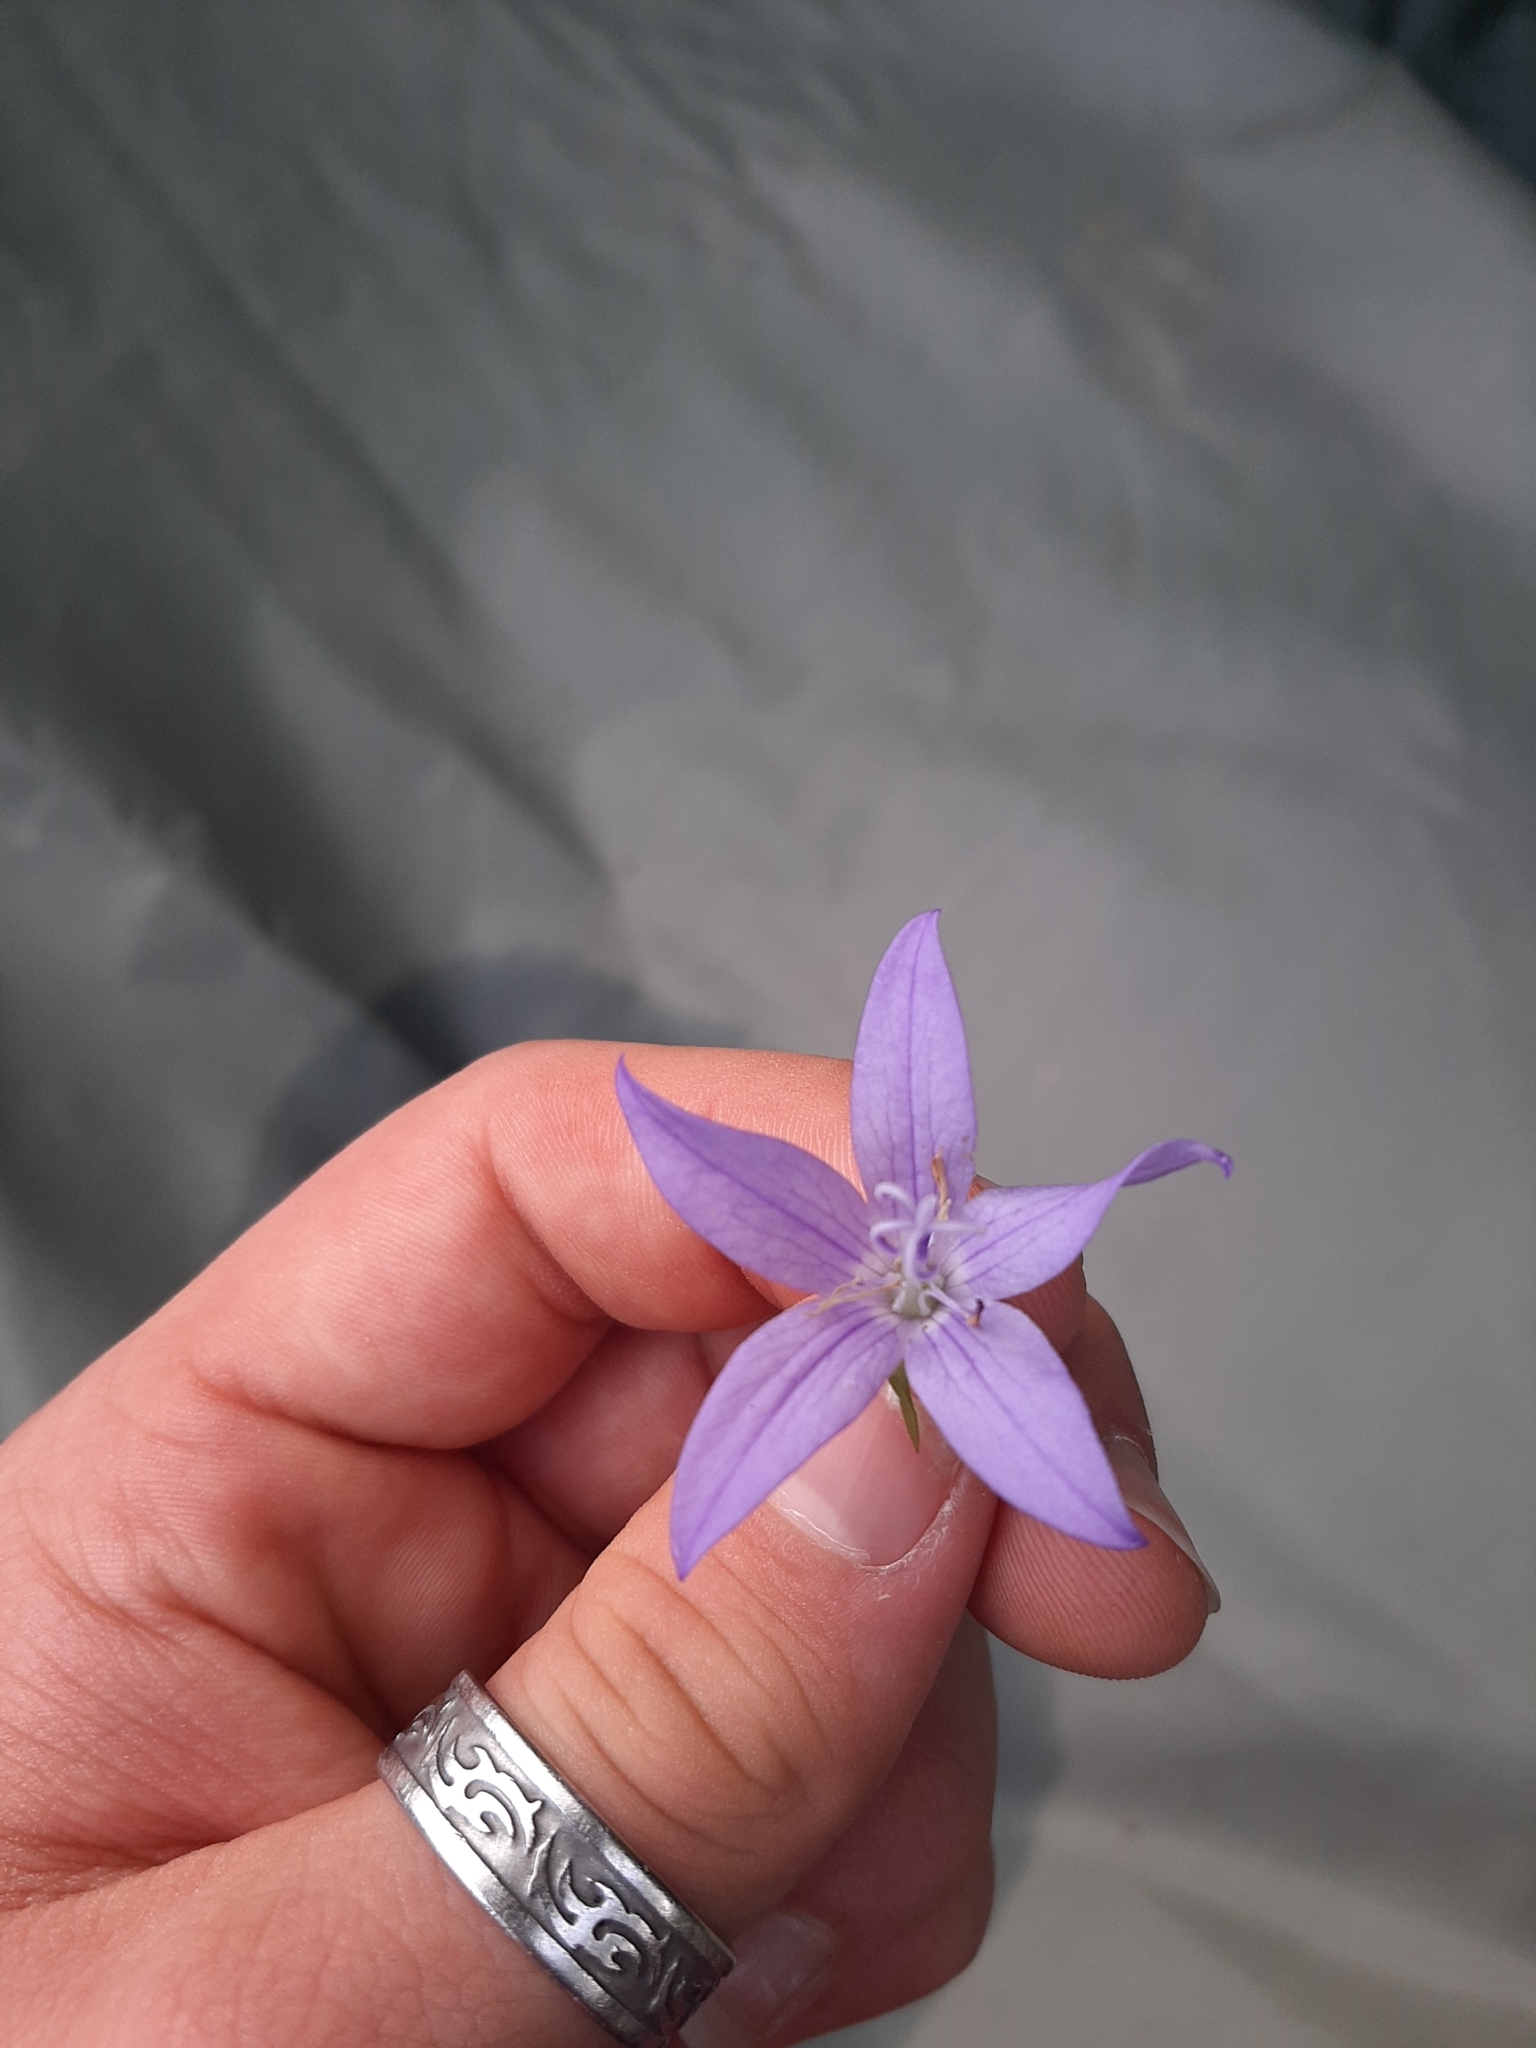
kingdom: Plantae
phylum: Tracheophyta
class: Magnoliopsida
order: Asterales
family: Campanulaceae
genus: Campanula
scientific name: Campanula poscharskyana
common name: Trailing bellflower
